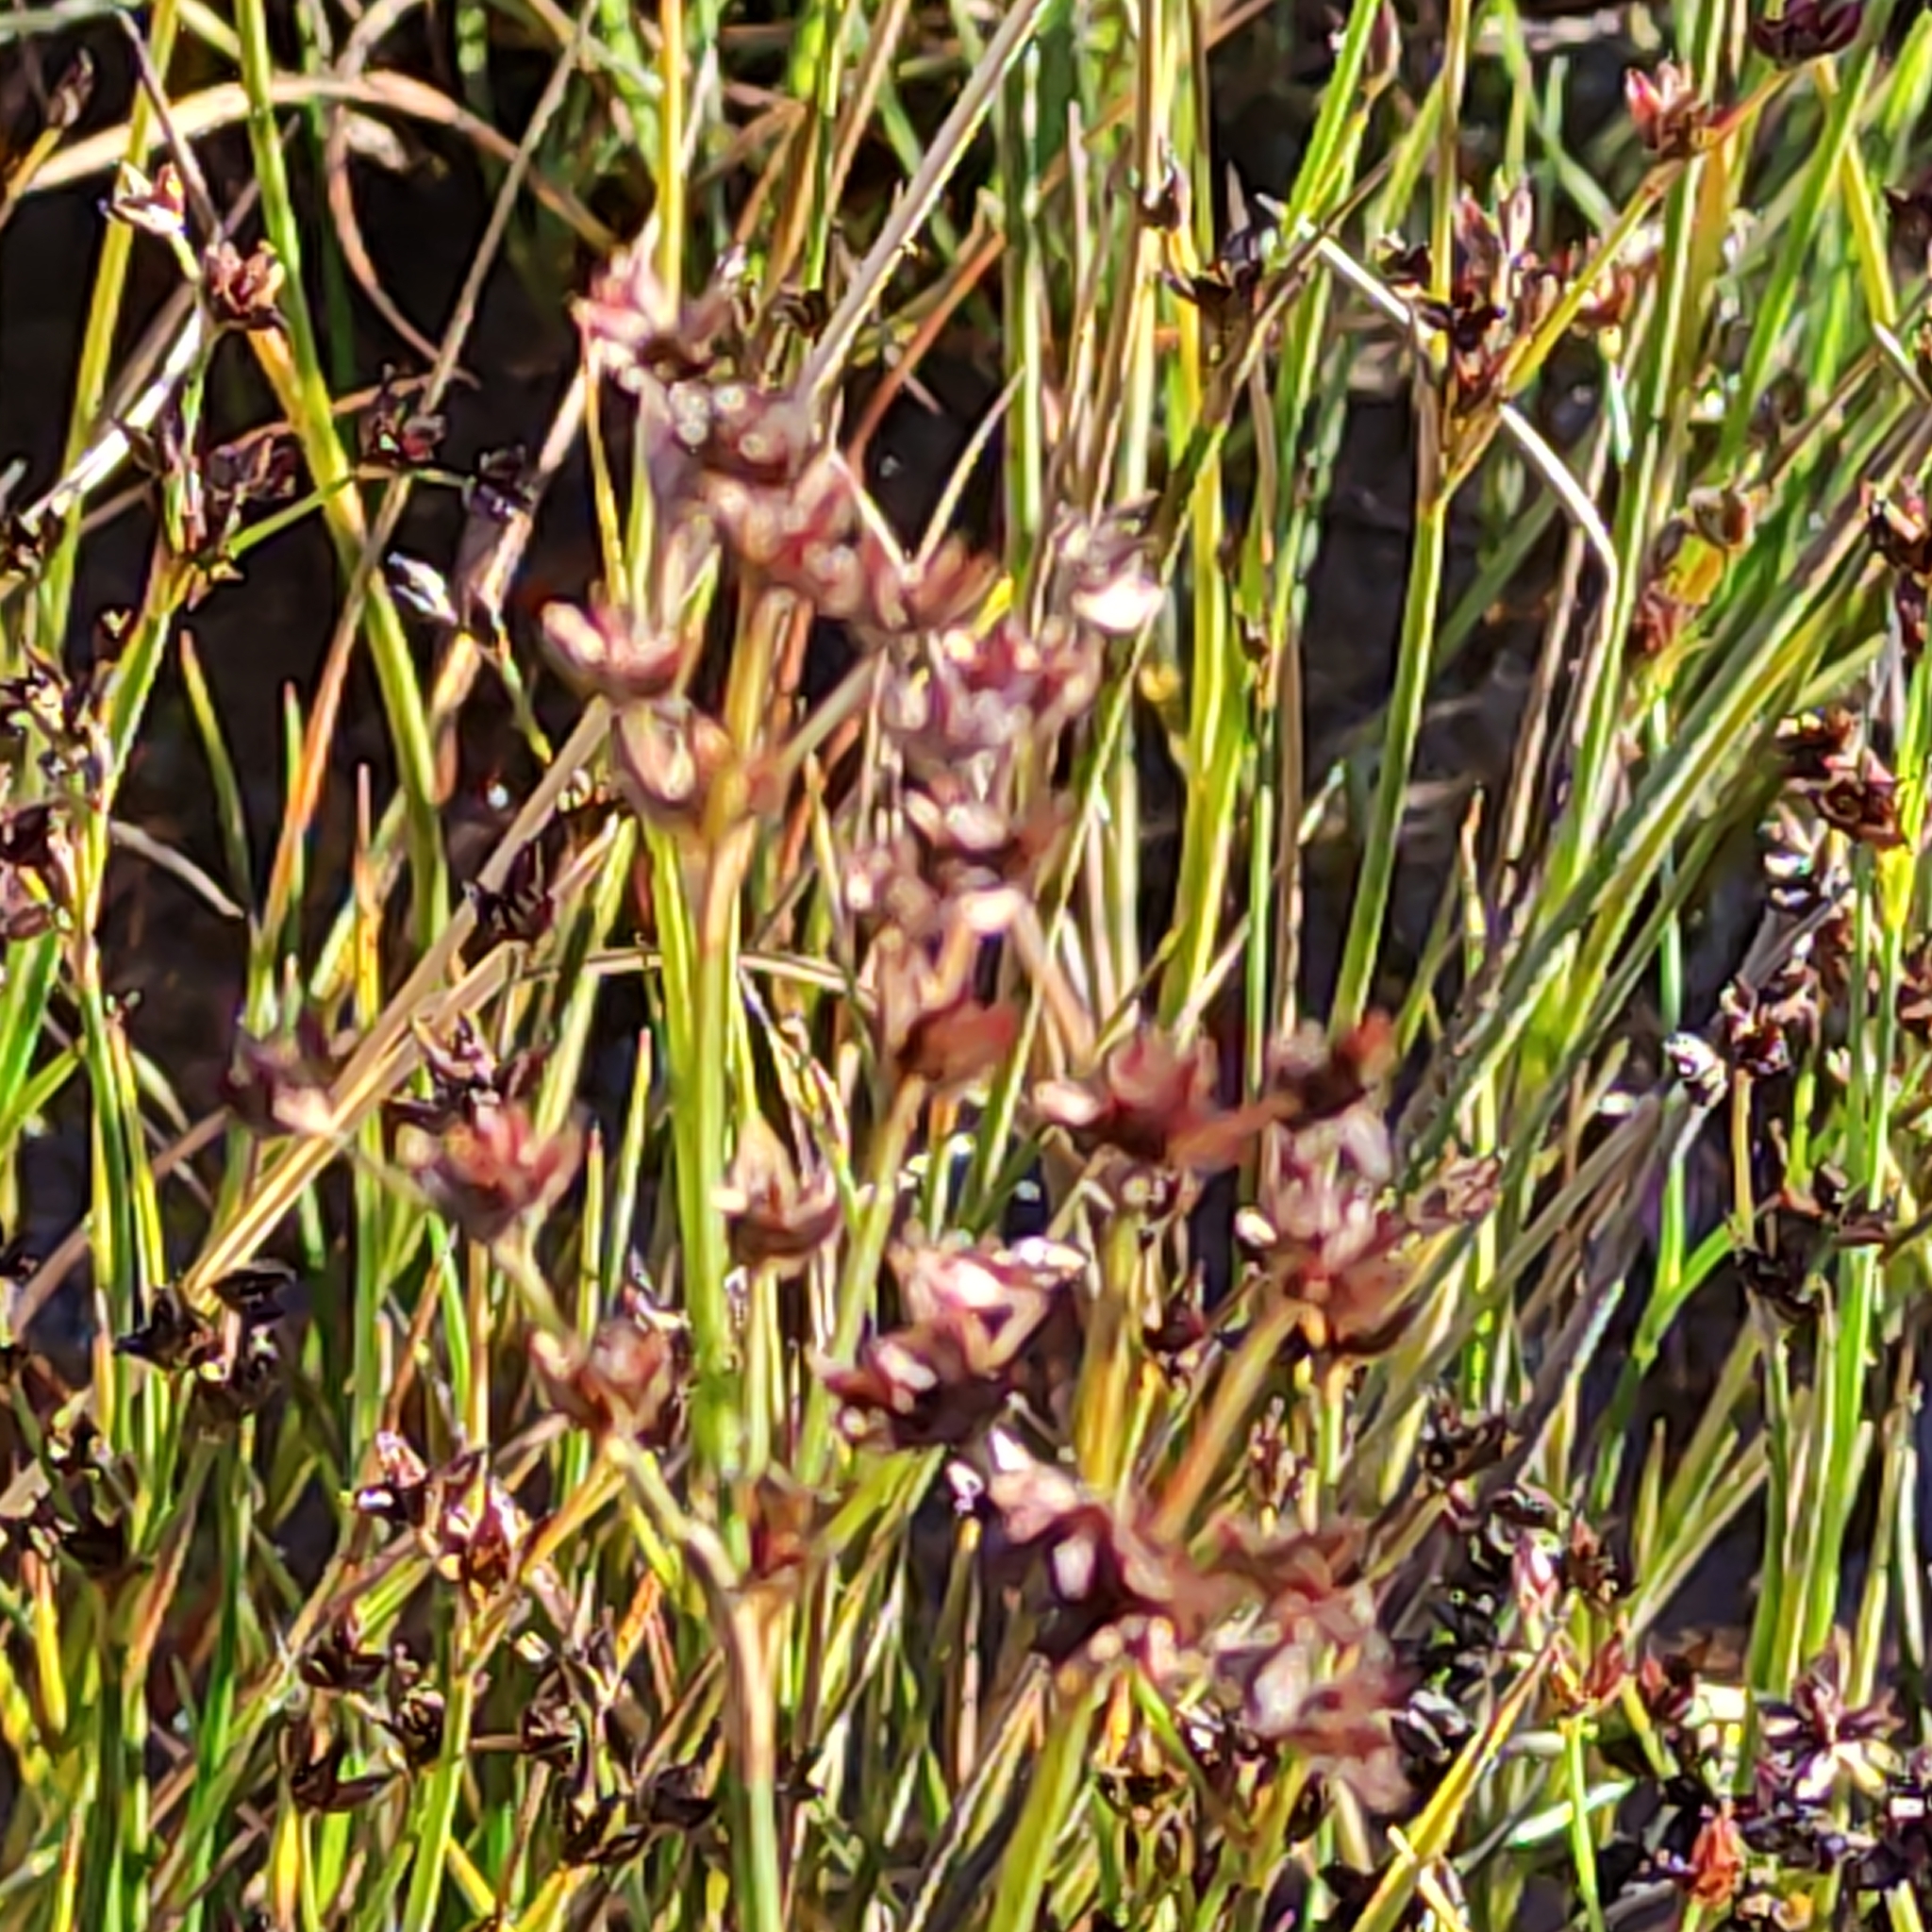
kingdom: Plantae
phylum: Tracheophyta
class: Liliopsida
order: Poales
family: Juncaceae
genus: Juncus
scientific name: Juncus articulatus
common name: Jointed rush
